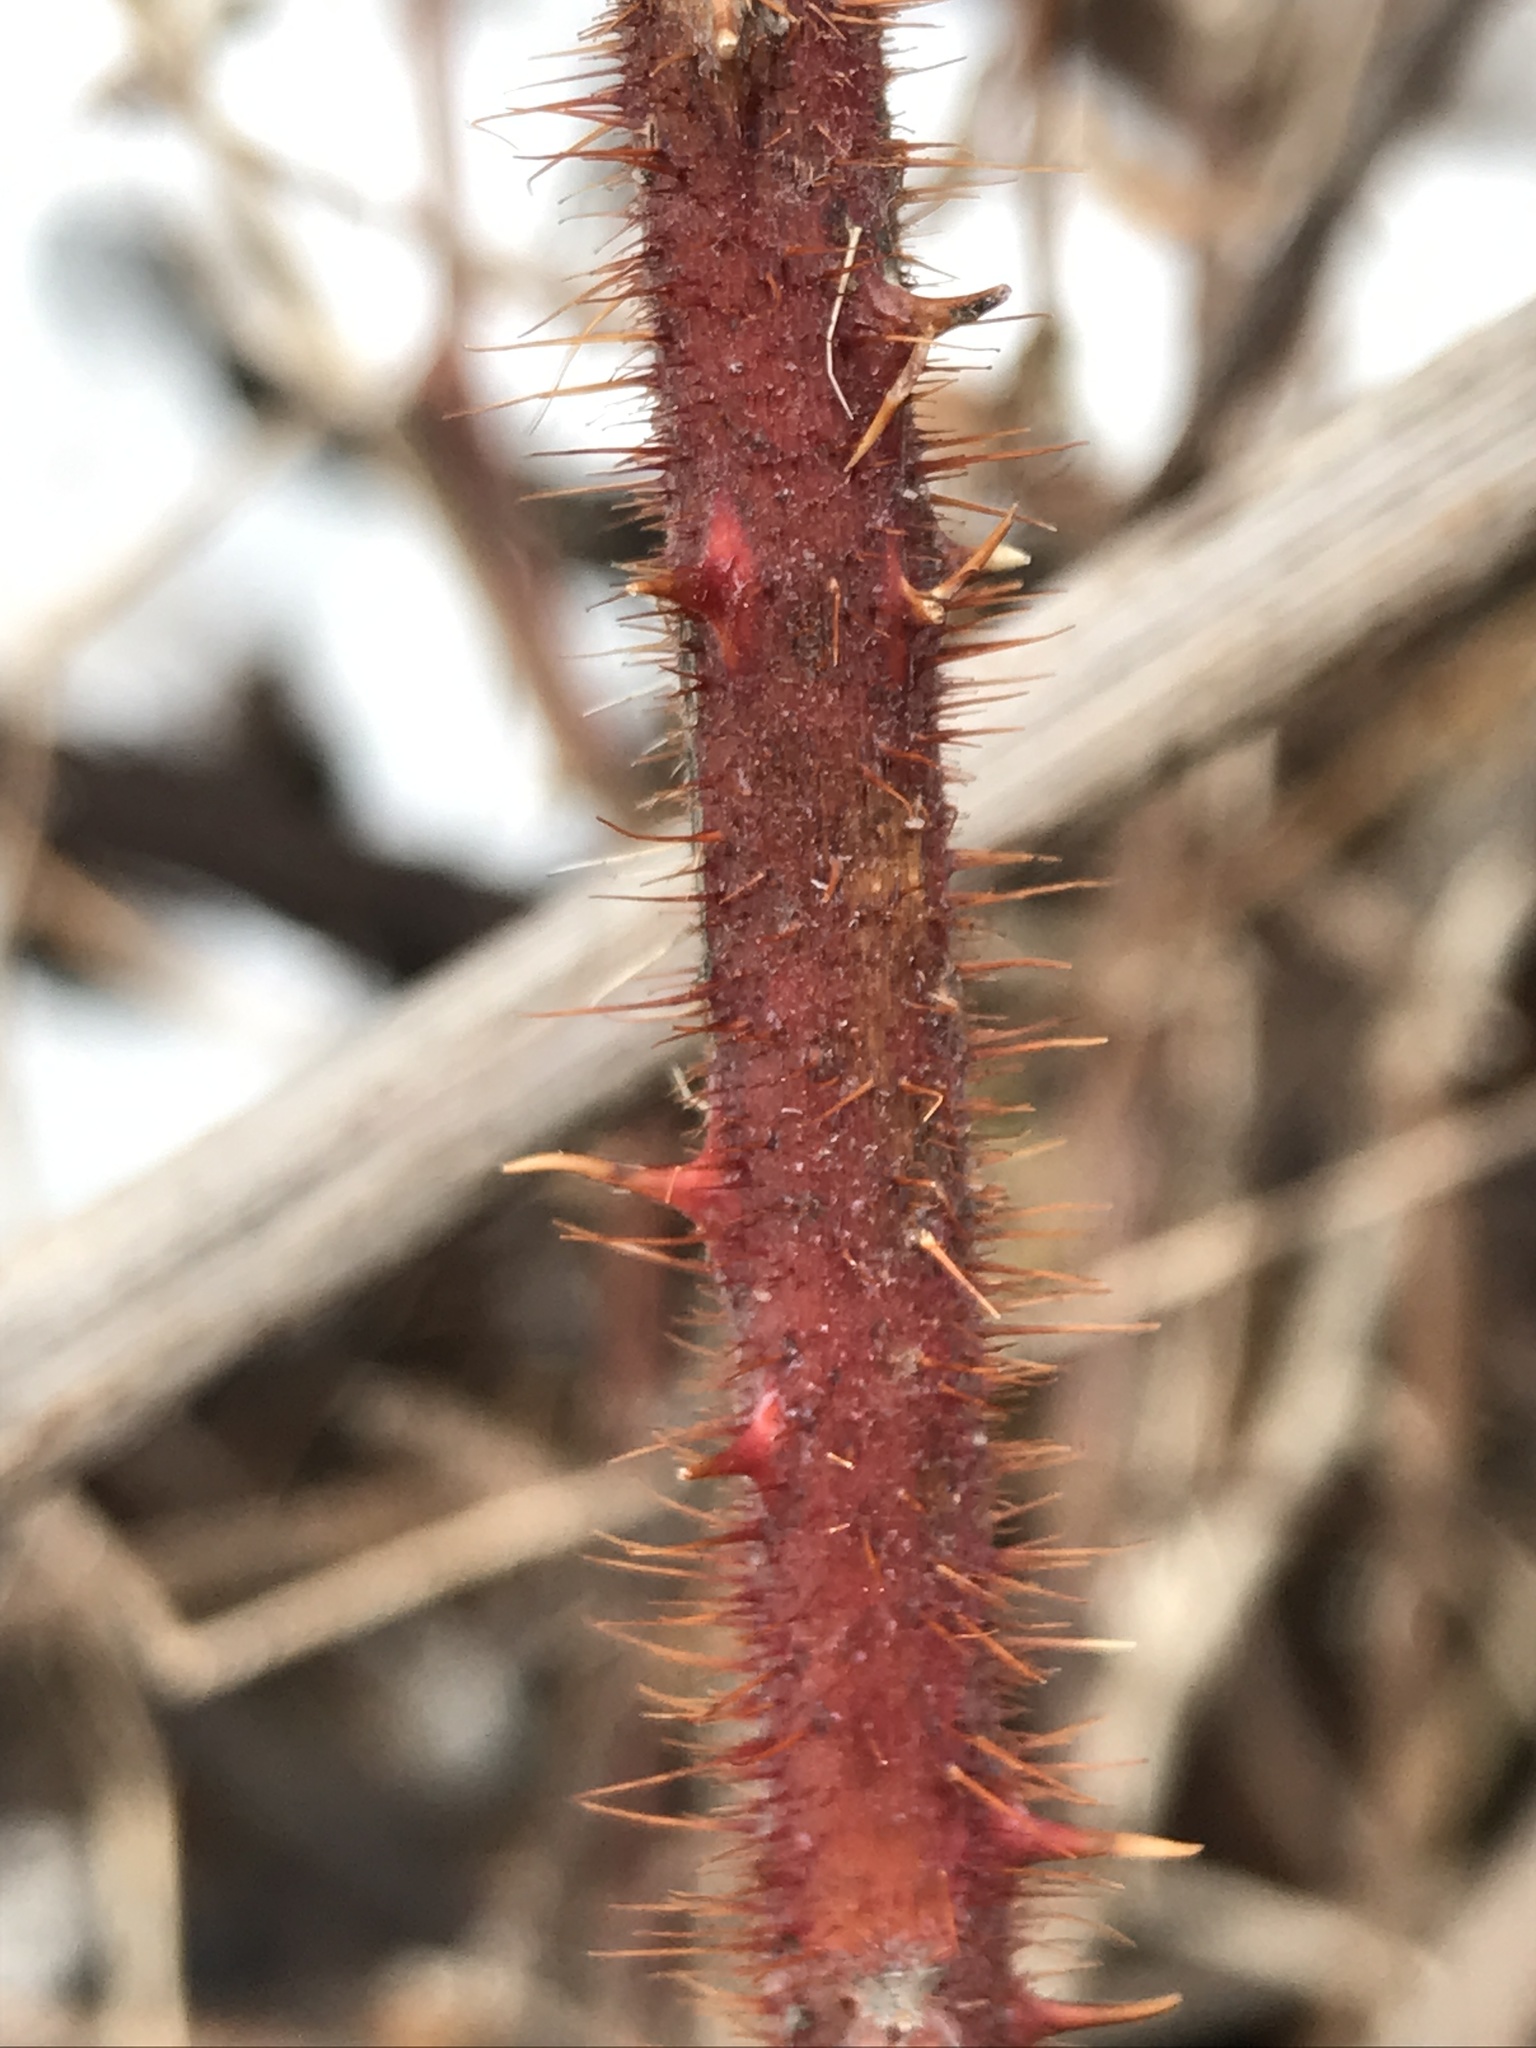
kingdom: Plantae
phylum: Tracheophyta
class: Magnoliopsida
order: Rosales
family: Rosaceae
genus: Rubus
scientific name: Rubus phoenicolasius
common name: Japanese wineberry
